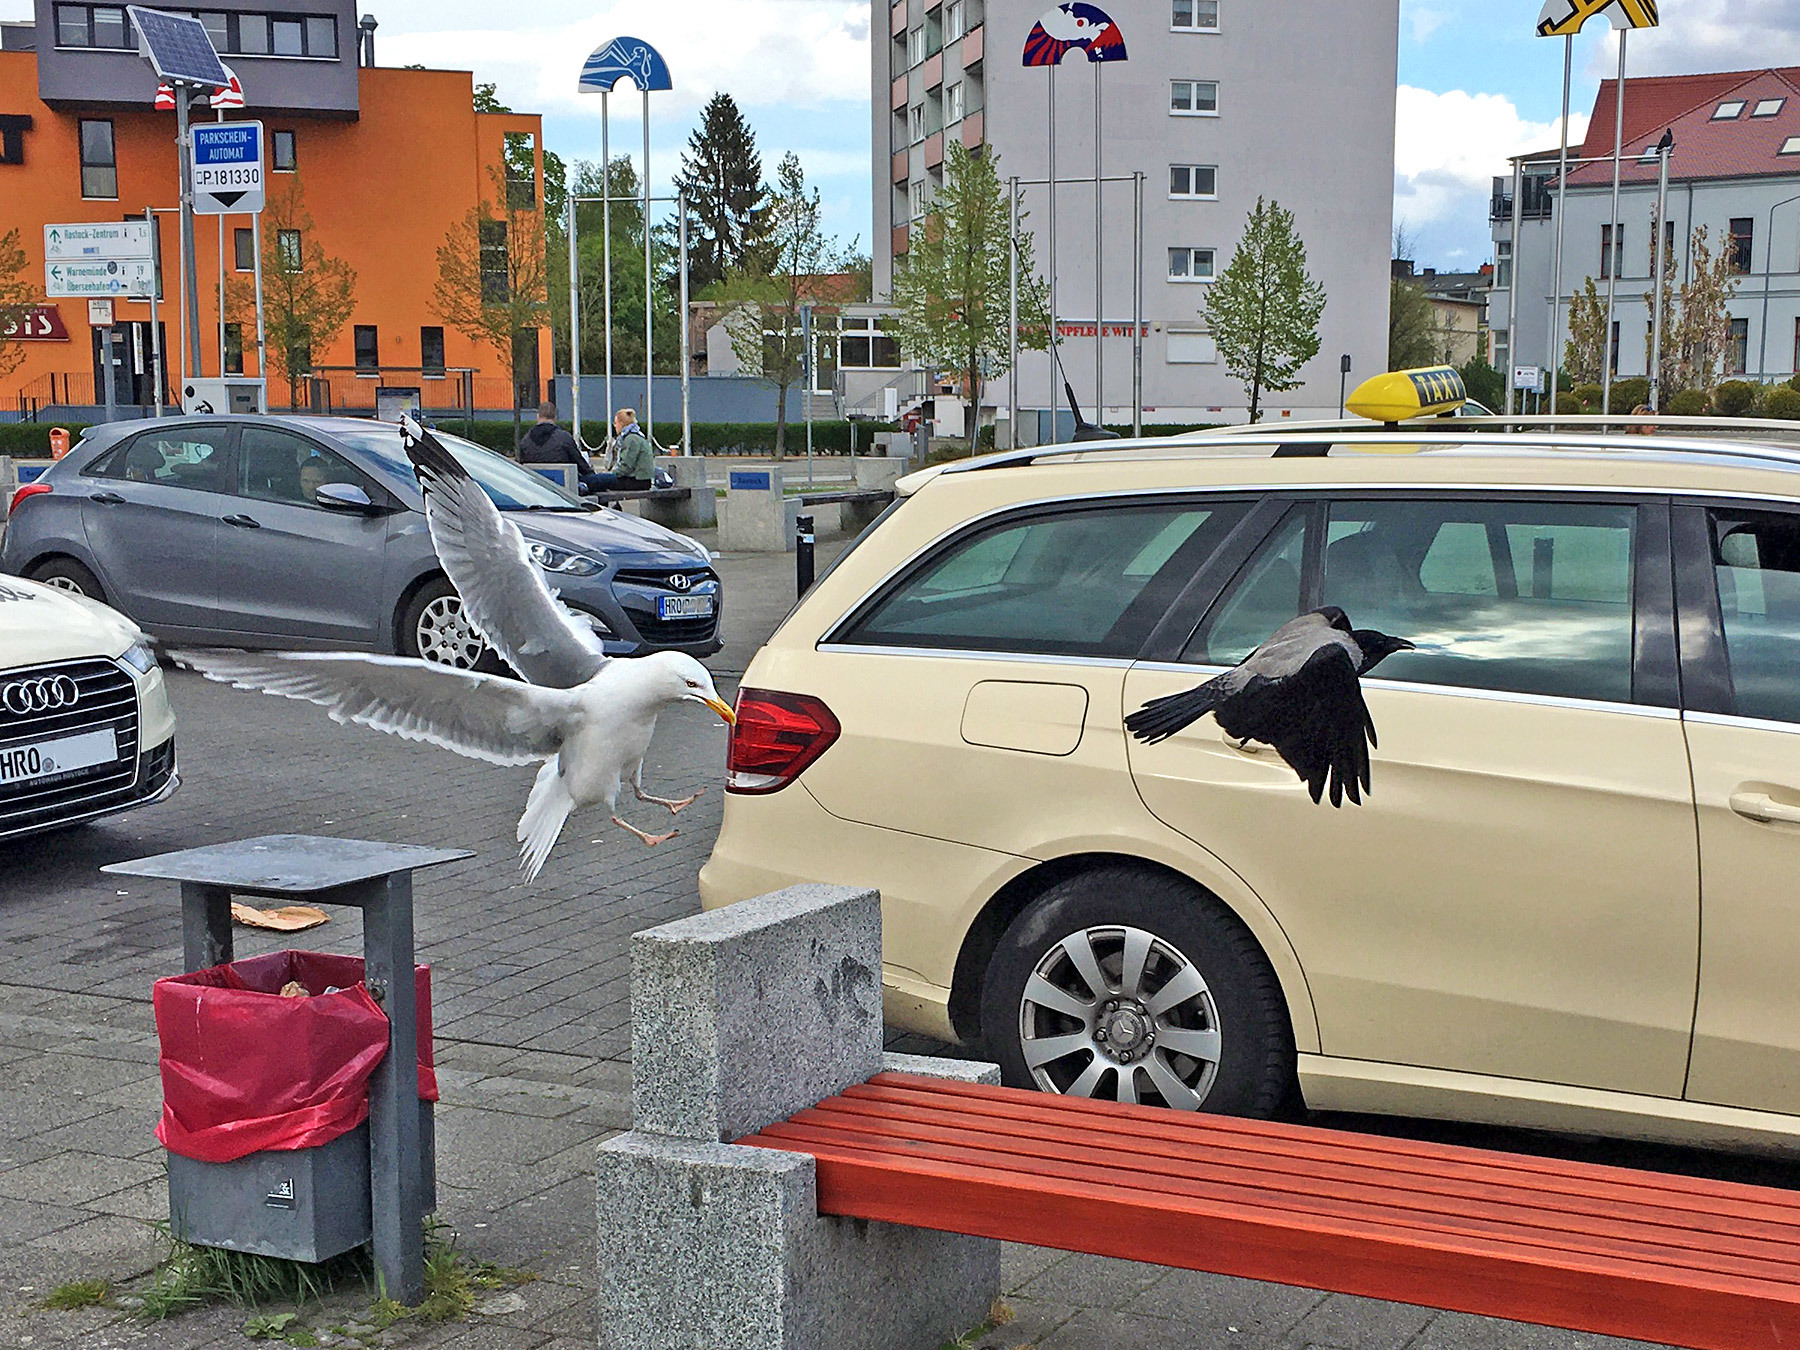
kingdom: Animalia
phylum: Chordata
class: Aves
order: Passeriformes
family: Corvidae
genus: Corvus
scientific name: Corvus cornix
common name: Hooded crow
